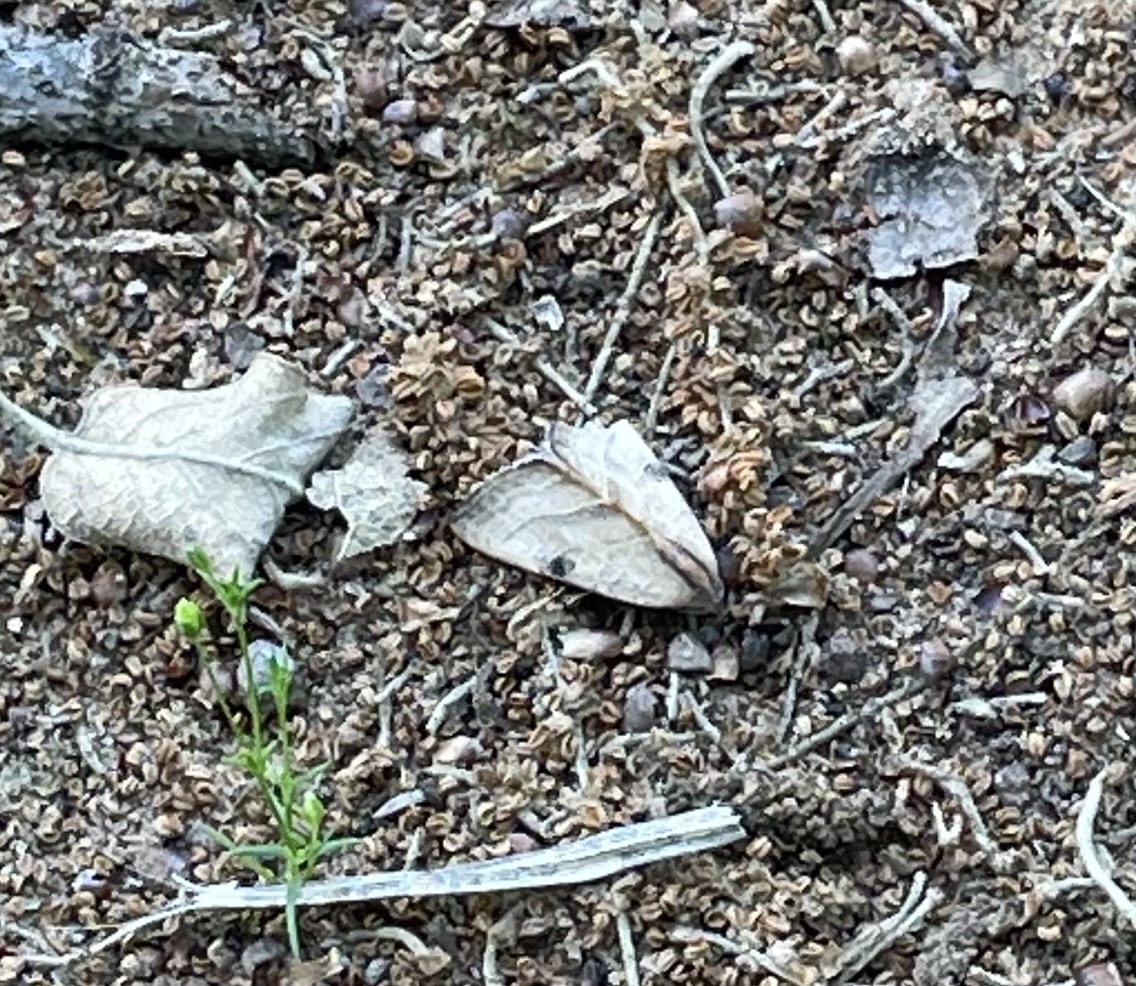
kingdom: Animalia
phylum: Arthropoda
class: Insecta
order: Lepidoptera
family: Noctuidae
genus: Galgula
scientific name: Galgula partita
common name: Wedgeling
